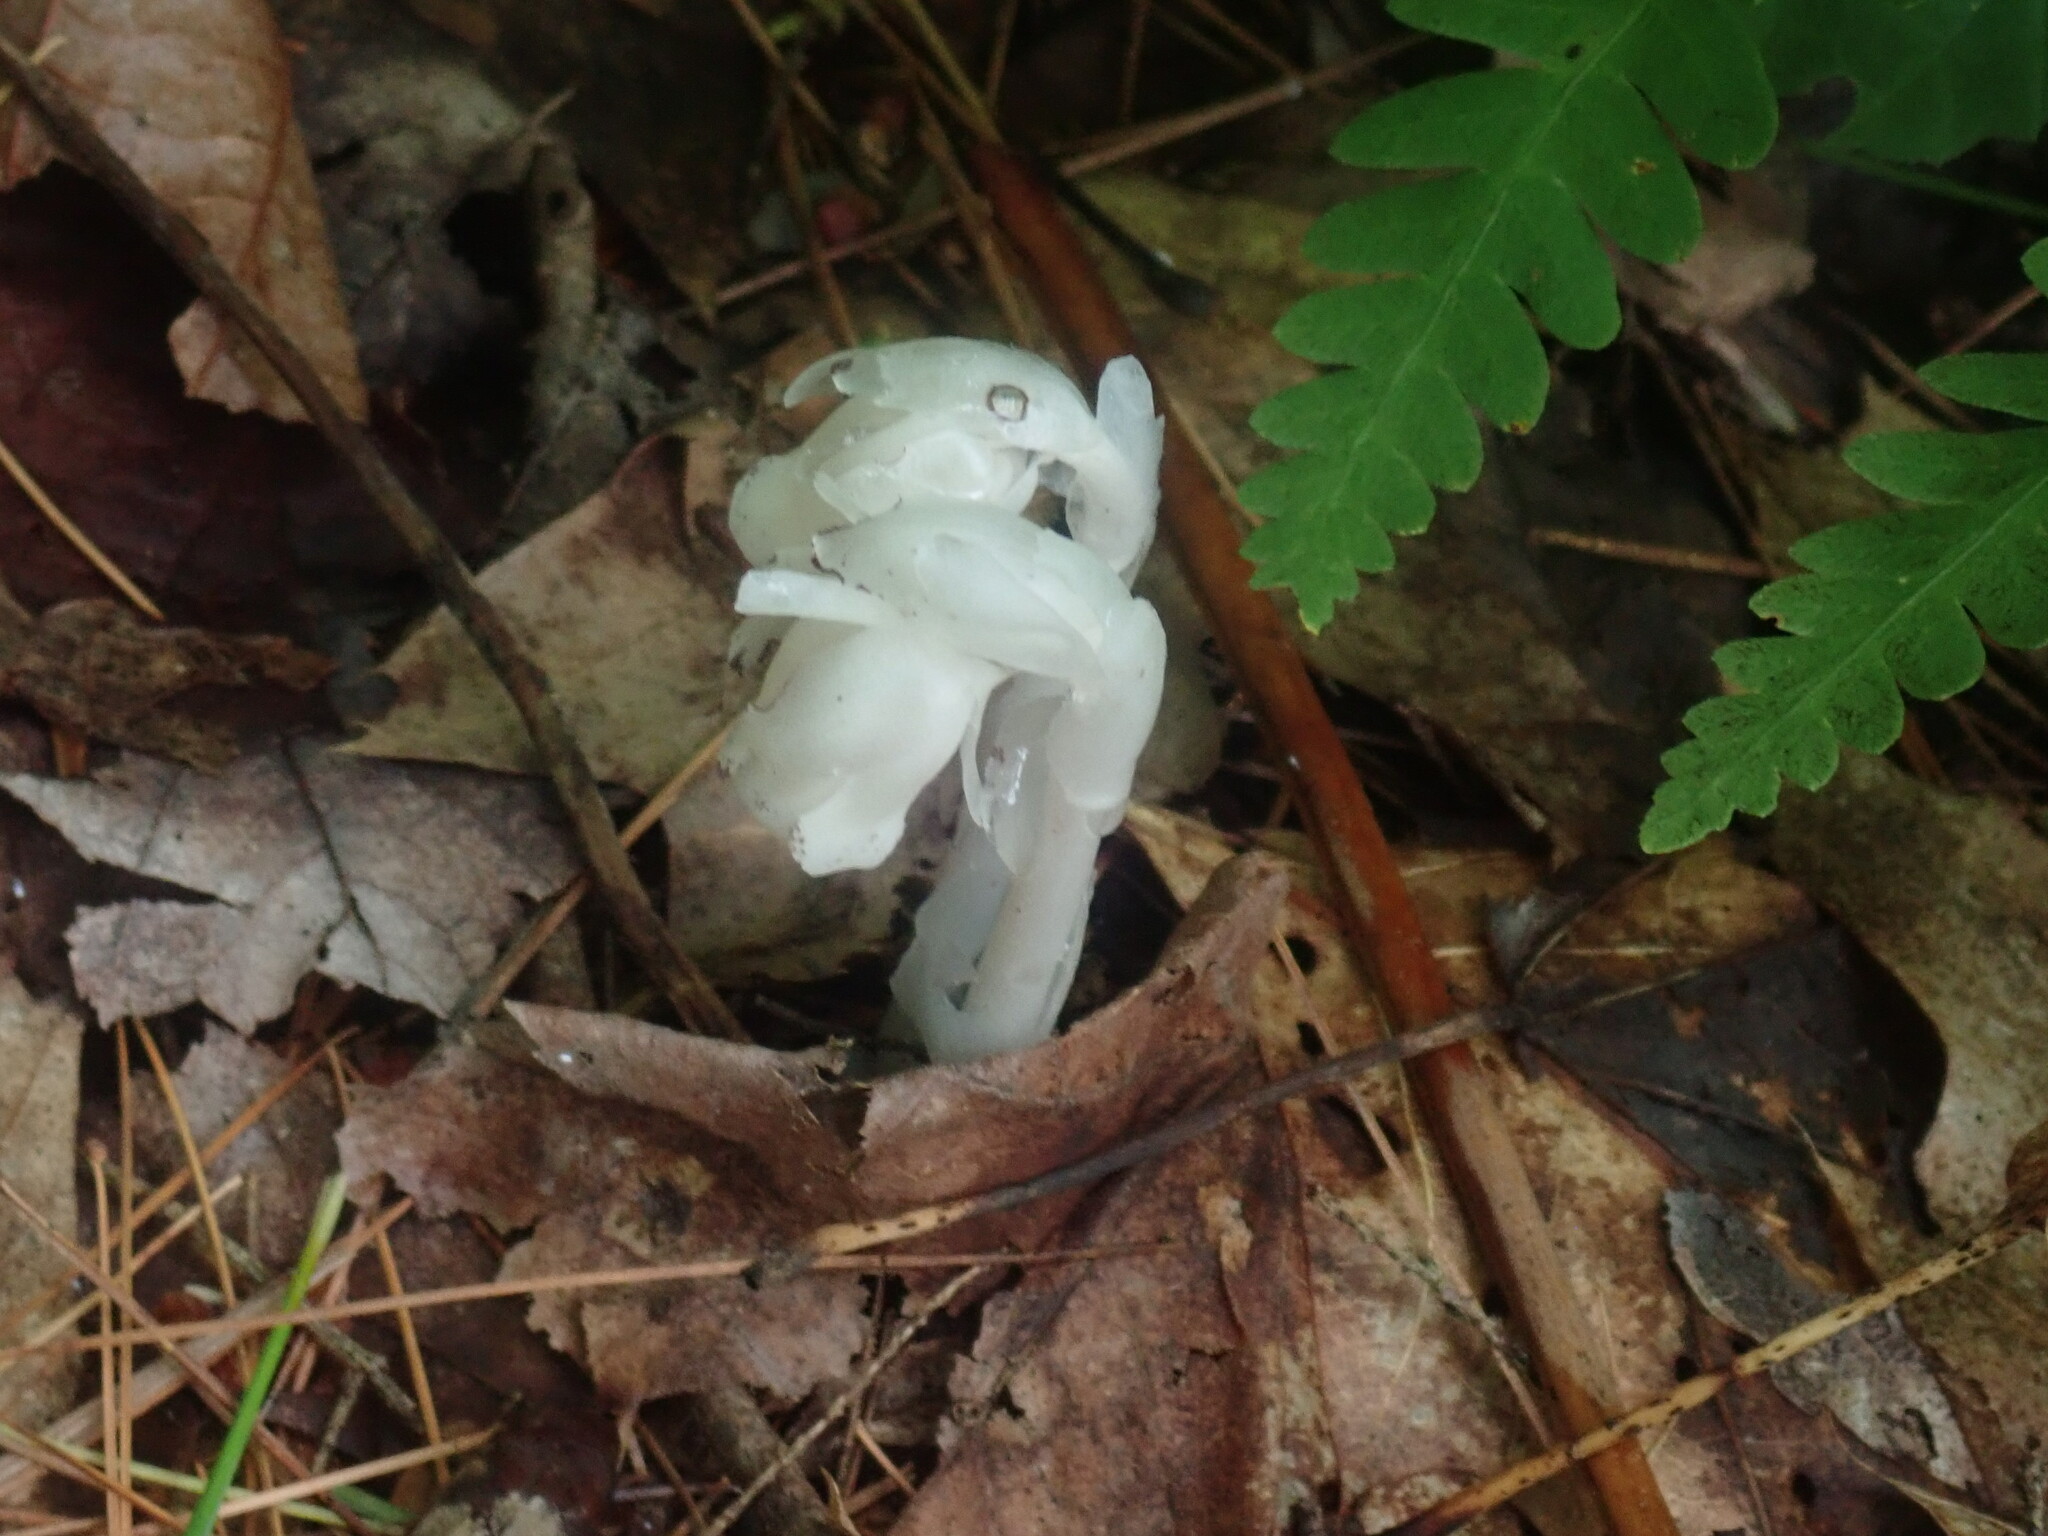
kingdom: Plantae
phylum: Tracheophyta
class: Magnoliopsida
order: Ericales
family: Ericaceae
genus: Monotropa
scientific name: Monotropa uniflora
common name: Convulsion root
